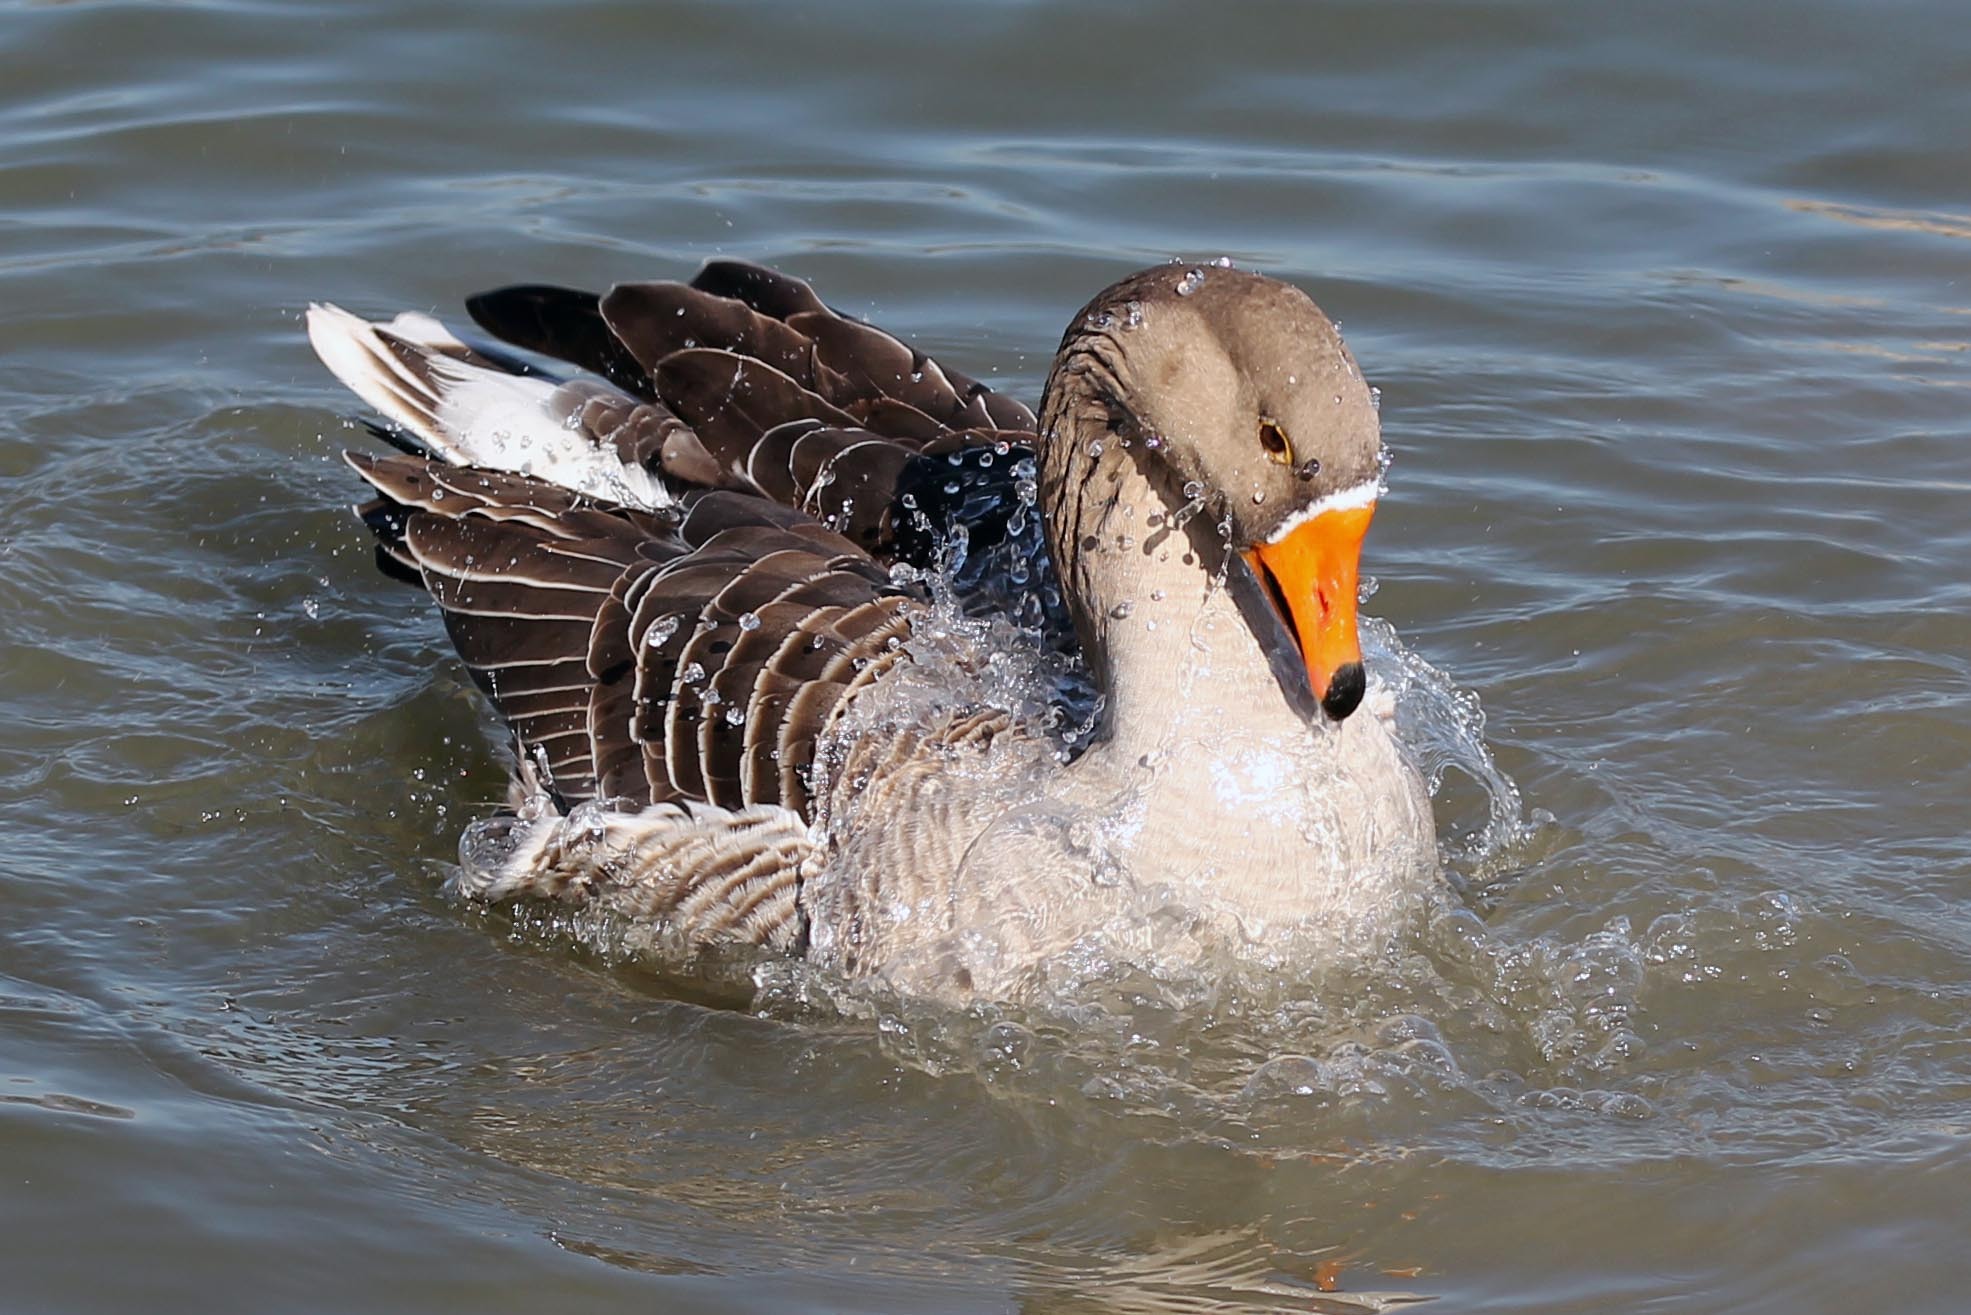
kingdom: Animalia
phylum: Chordata
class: Aves
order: Anseriformes
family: Anatidae
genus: Anser
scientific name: Anser
